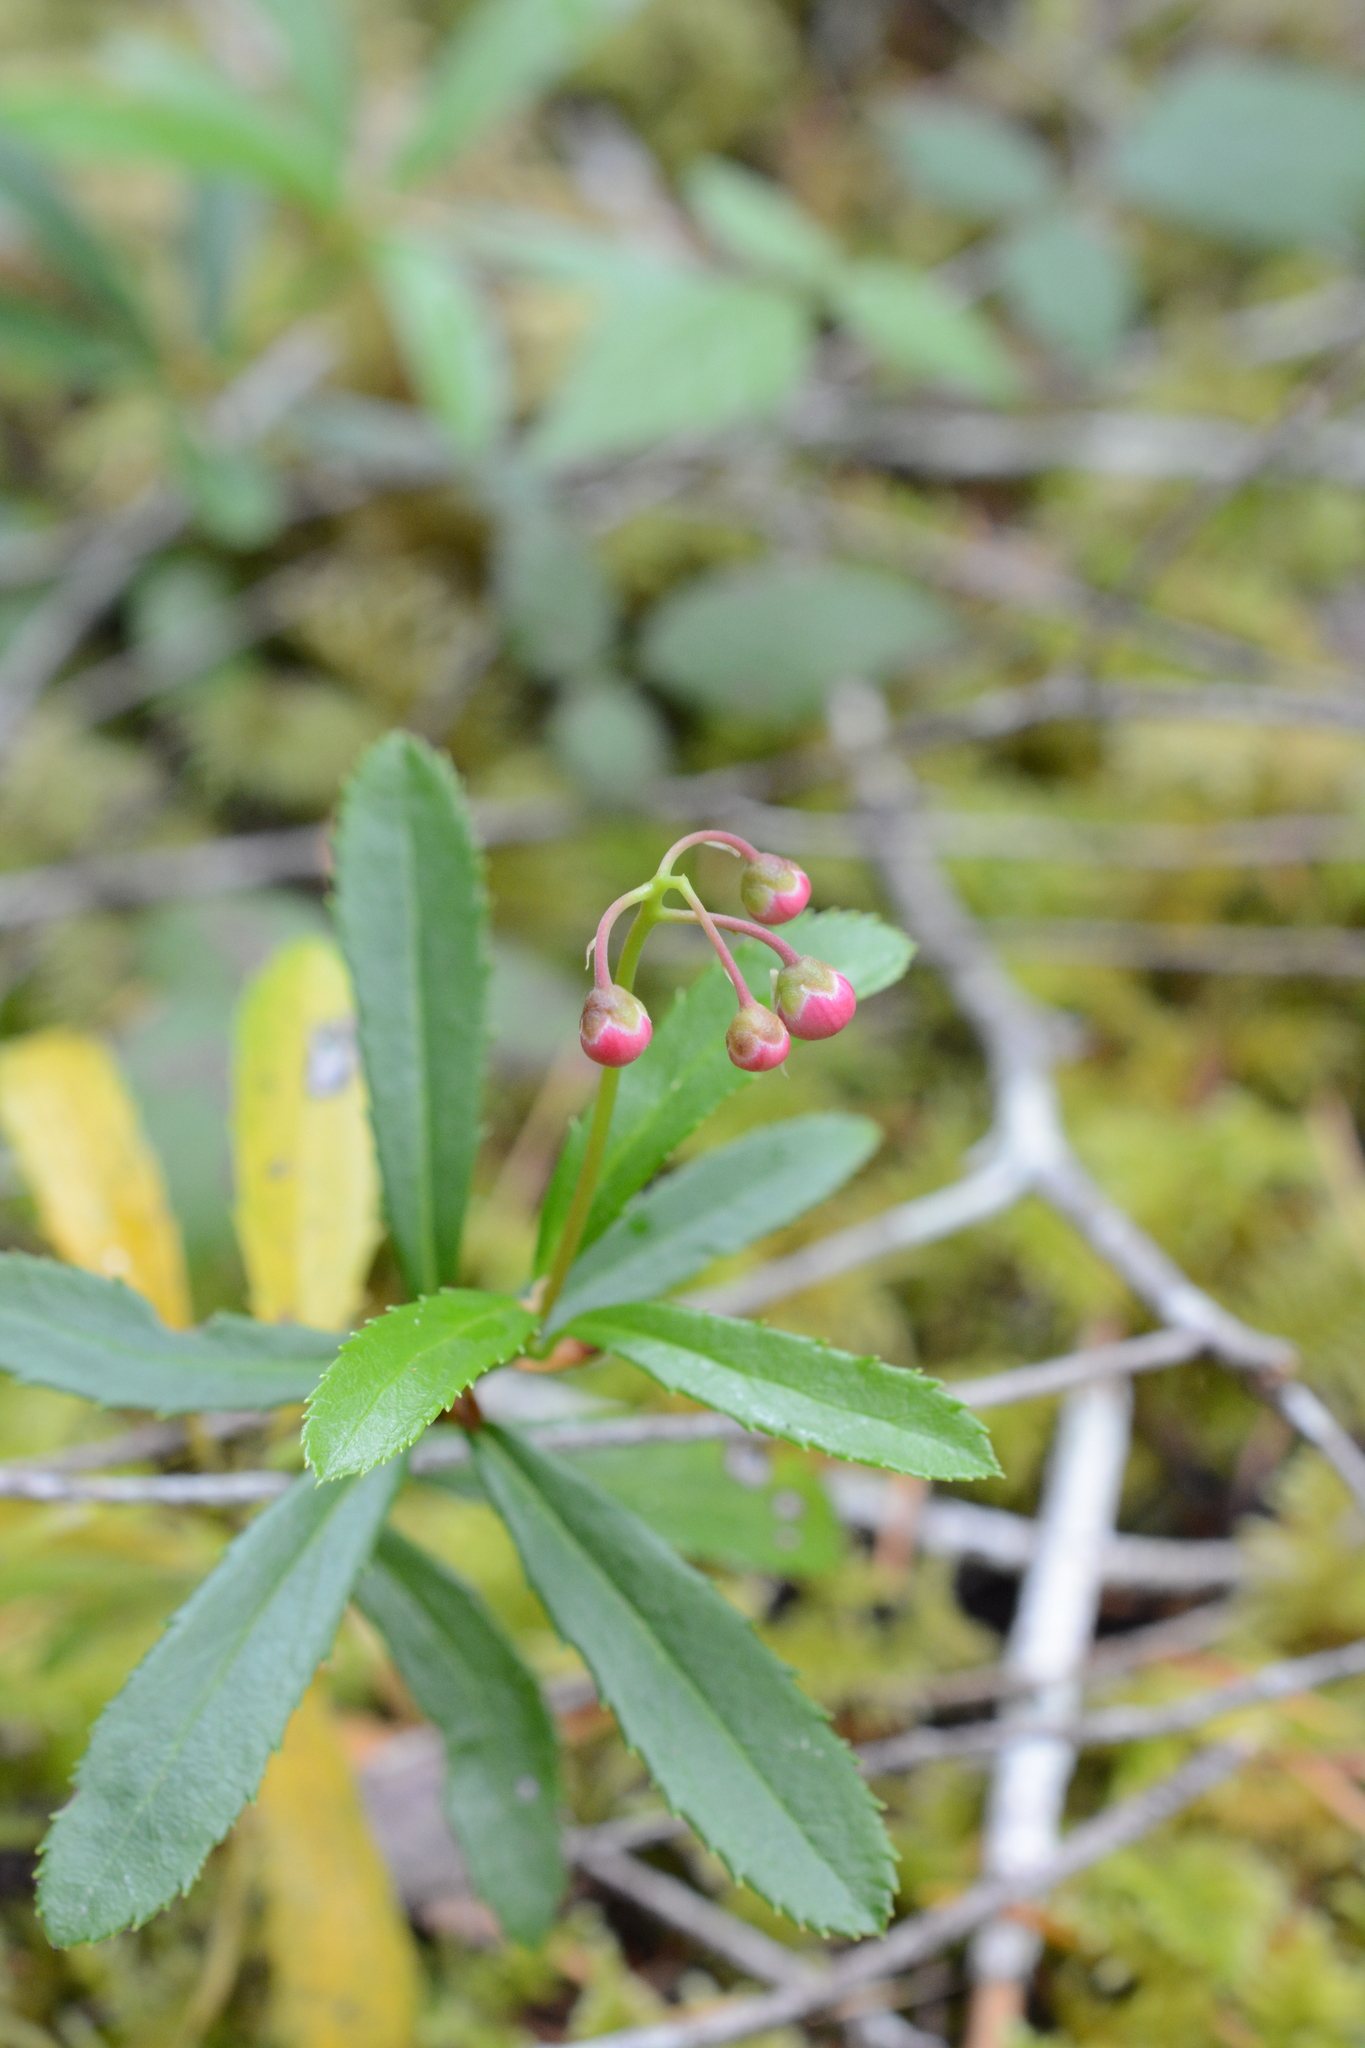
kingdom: Plantae
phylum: Tracheophyta
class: Magnoliopsida
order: Ericales
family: Ericaceae
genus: Chimaphila
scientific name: Chimaphila umbellata
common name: Pipsissewa
